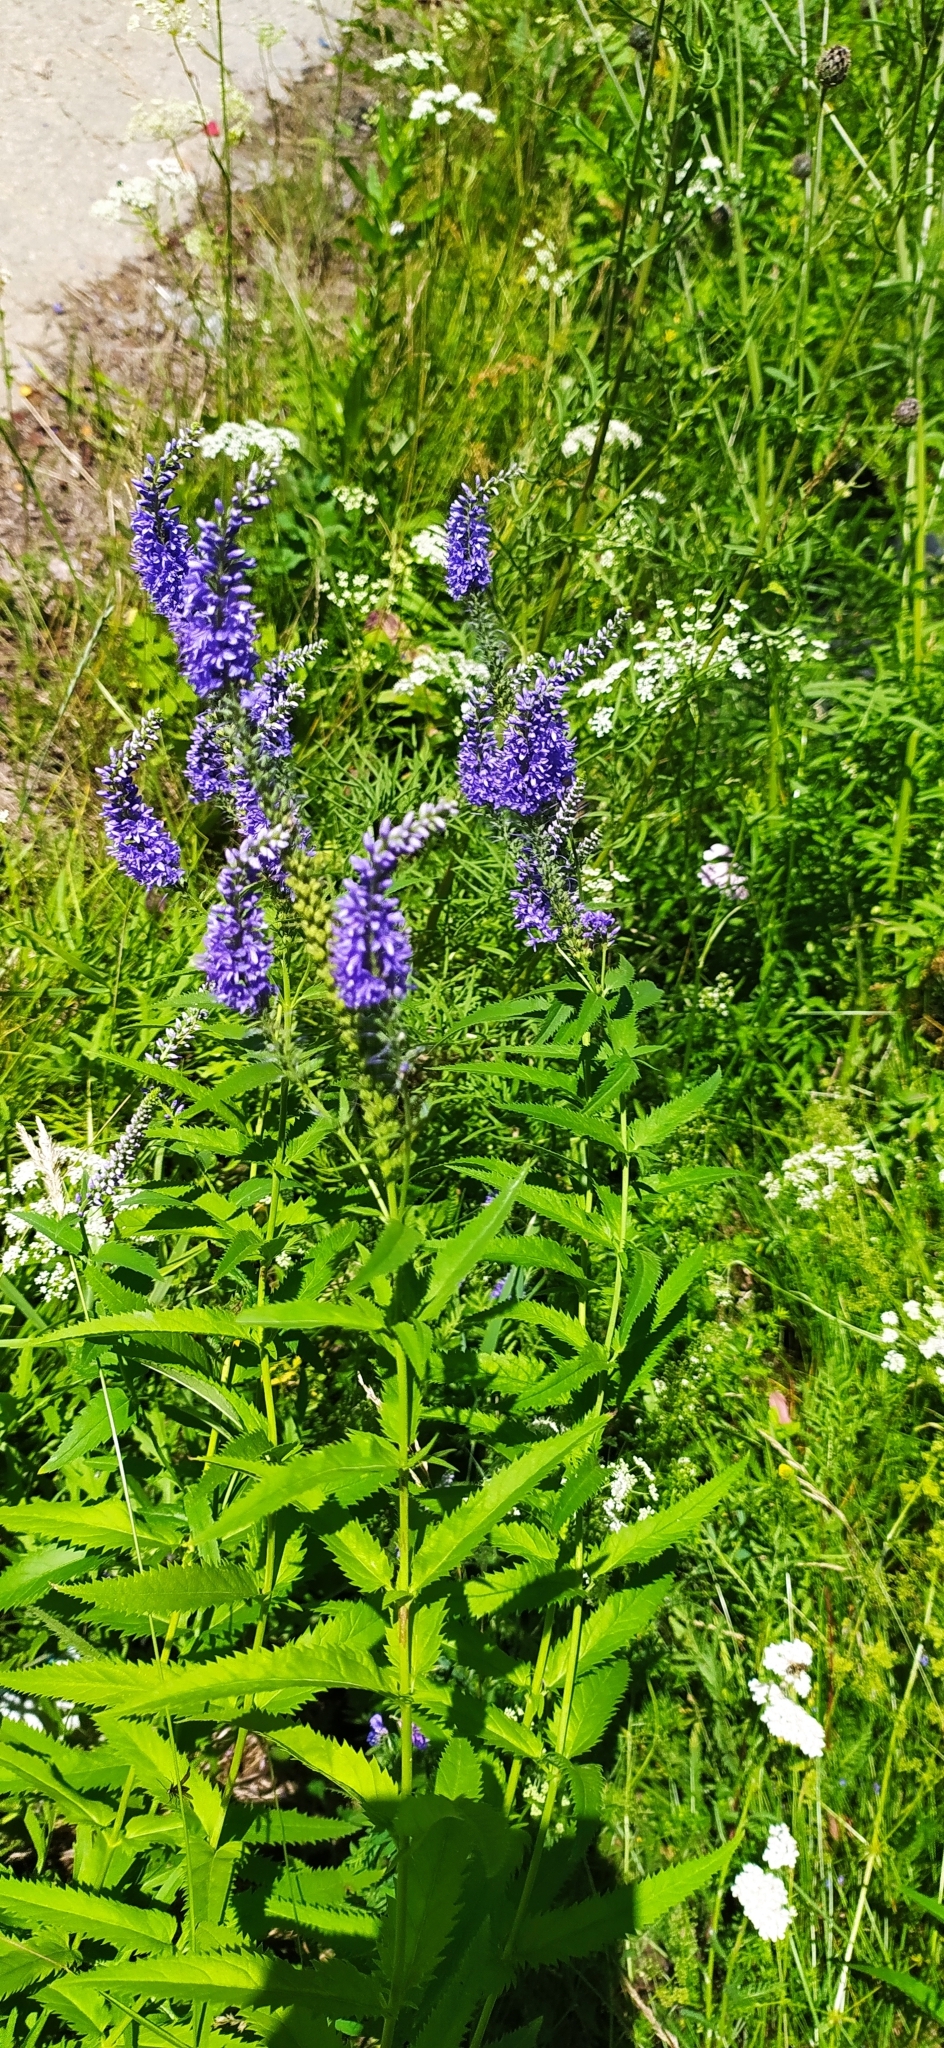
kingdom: Plantae
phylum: Tracheophyta
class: Magnoliopsida
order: Lamiales
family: Plantaginaceae
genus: Veronica
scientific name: Veronica longifolia
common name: Garden speedwell
